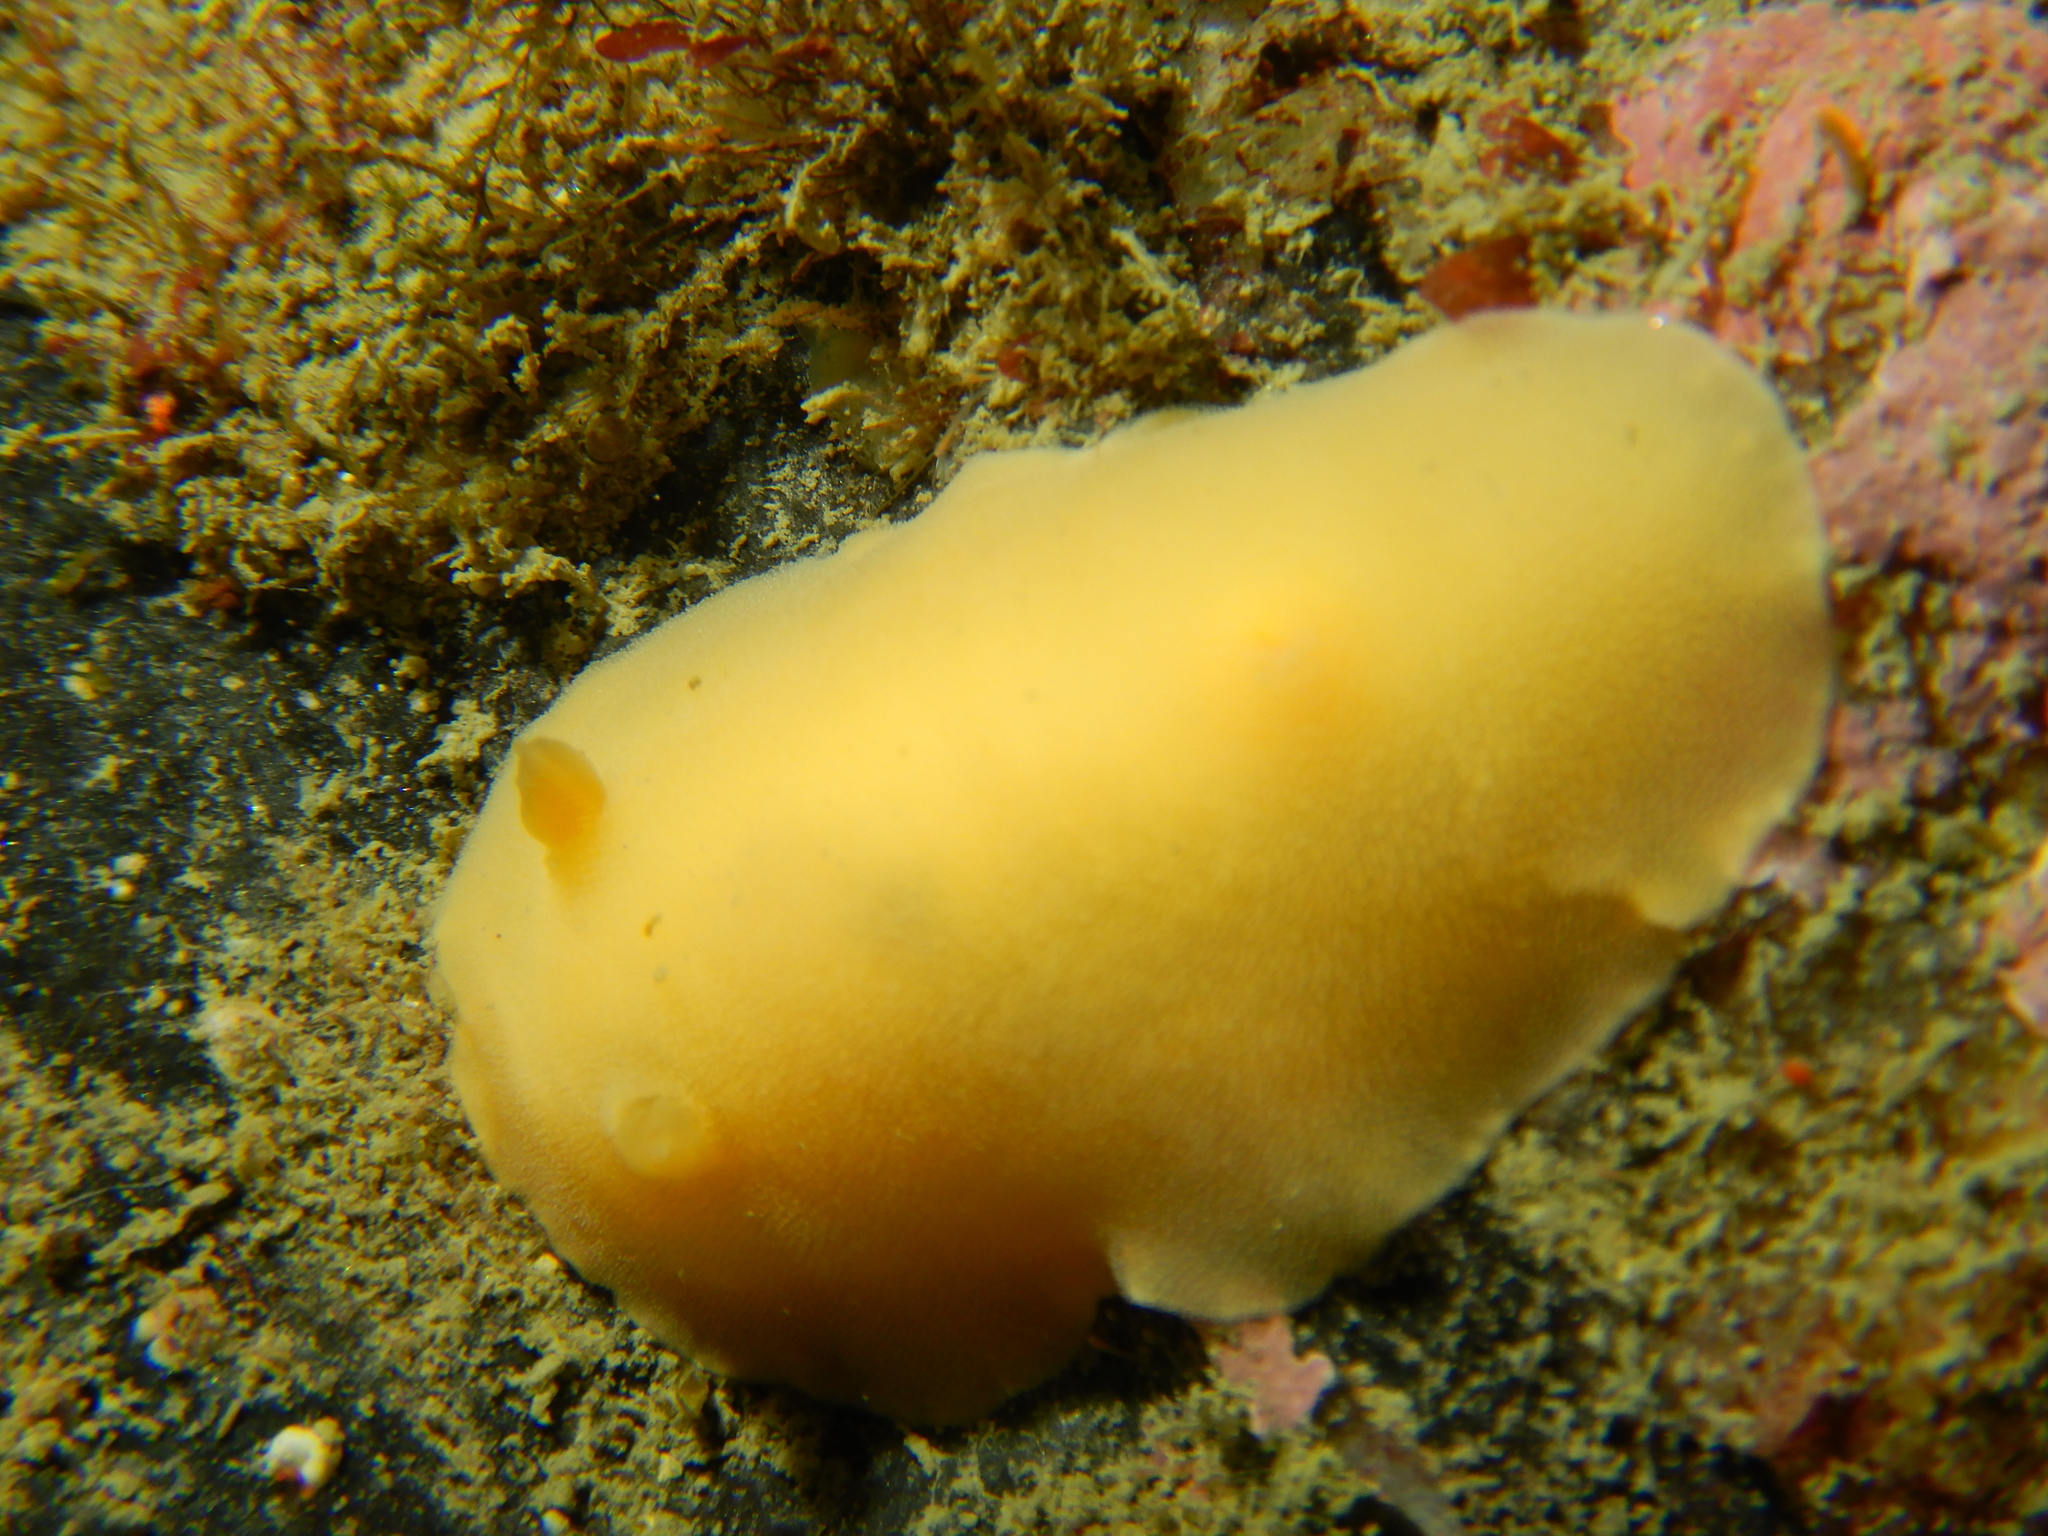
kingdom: Animalia
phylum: Mollusca
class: Gastropoda
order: Nudibranchia
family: Discodorididae
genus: Gargamella
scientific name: Gargamella immaculata
